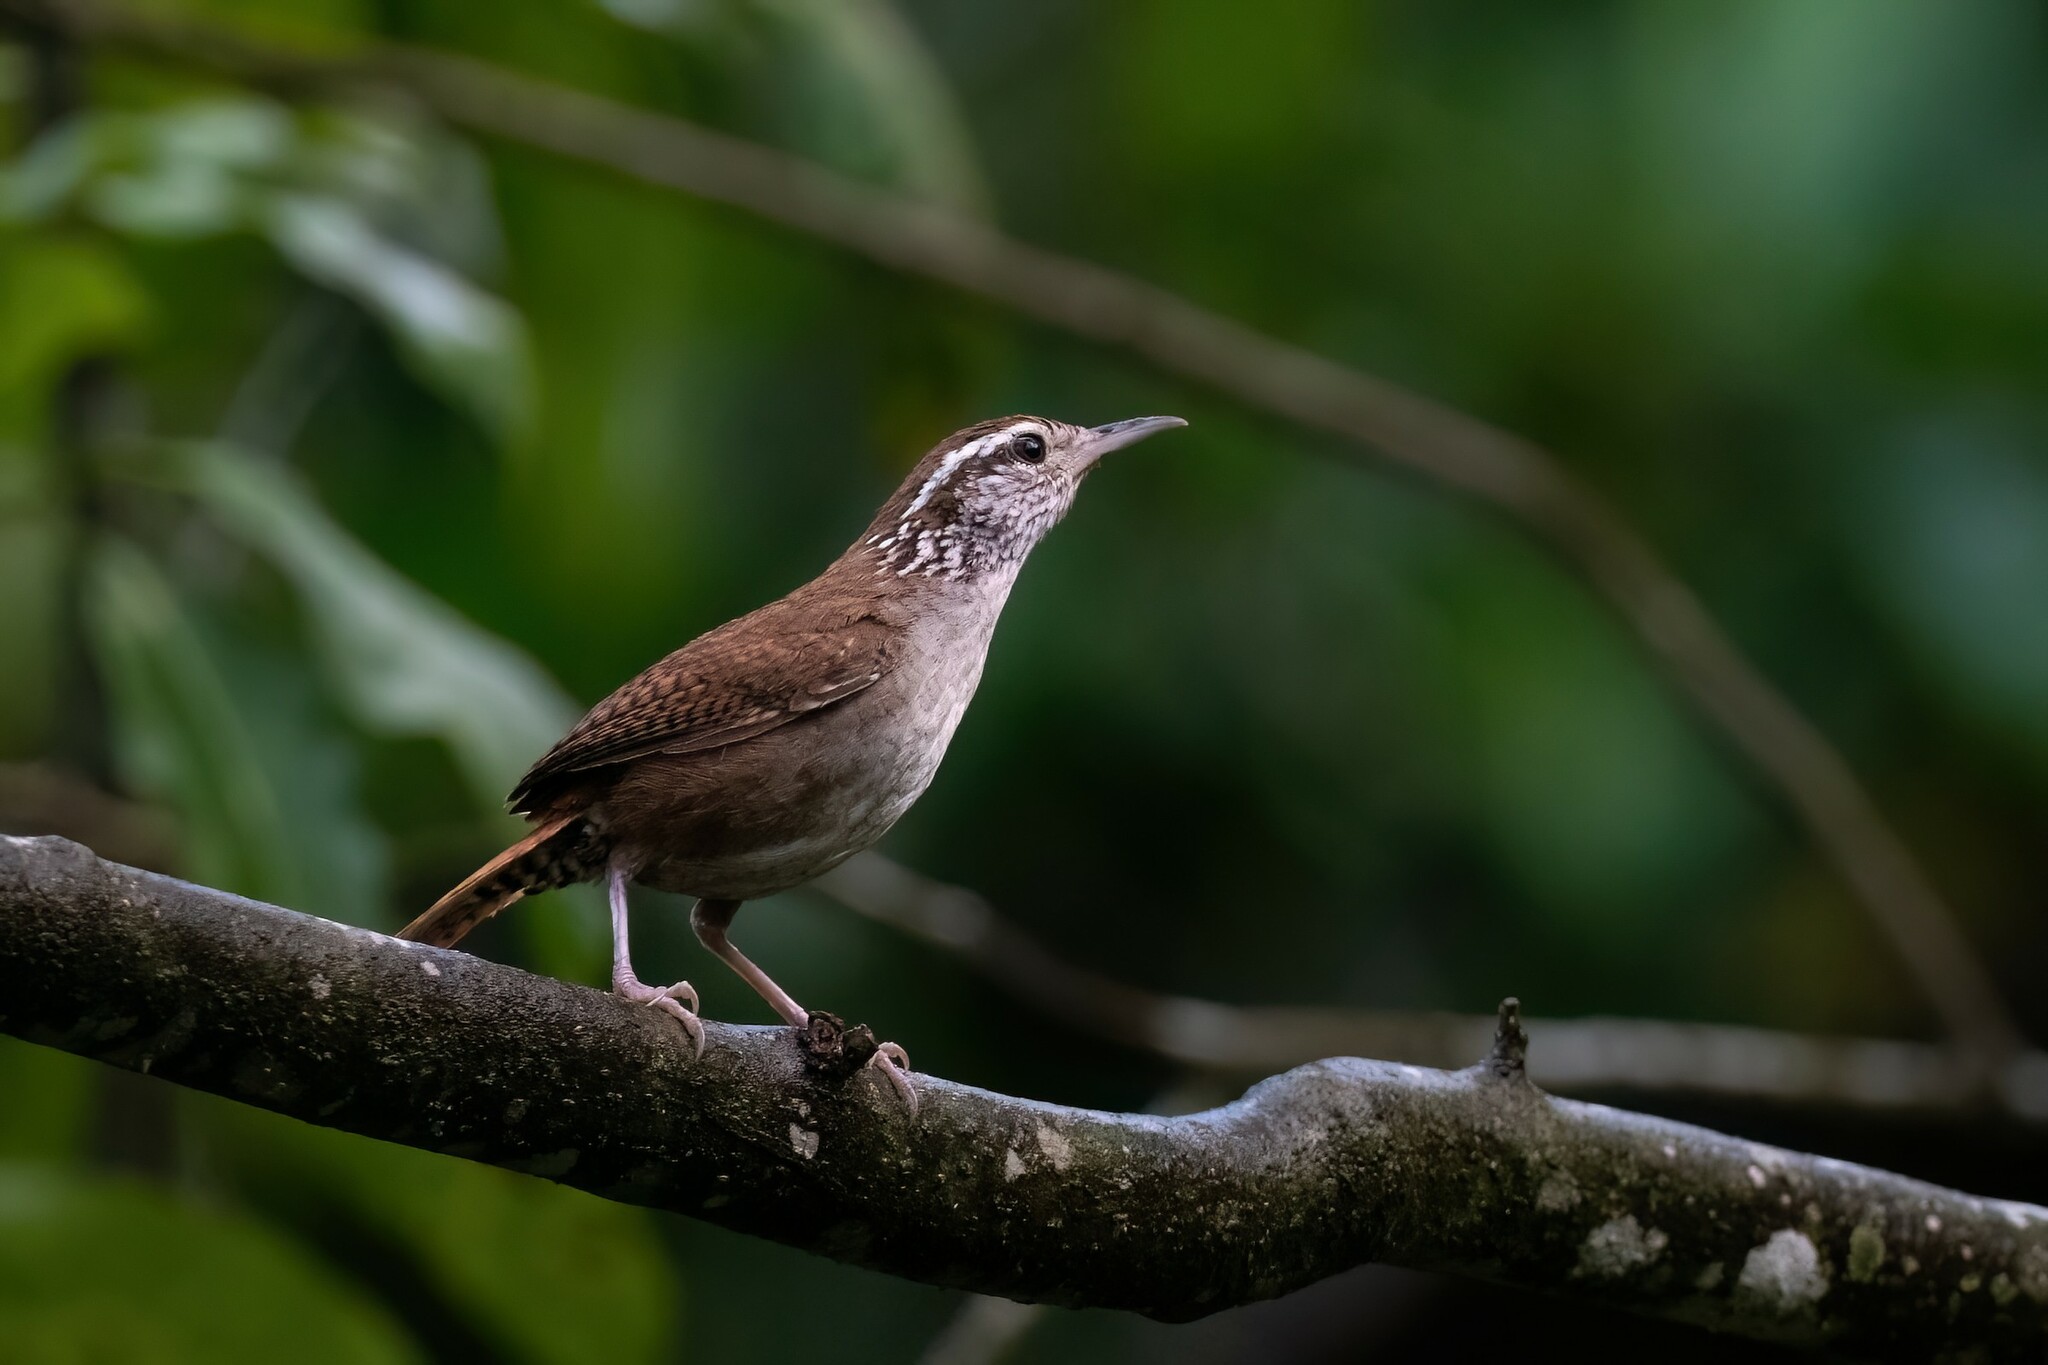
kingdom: Animalia
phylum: Chordata
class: Aves
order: Passeriformes
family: Troglodytidae
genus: Thryophilus
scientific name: Thryophilus sinaloa
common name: Sinaloa wren
